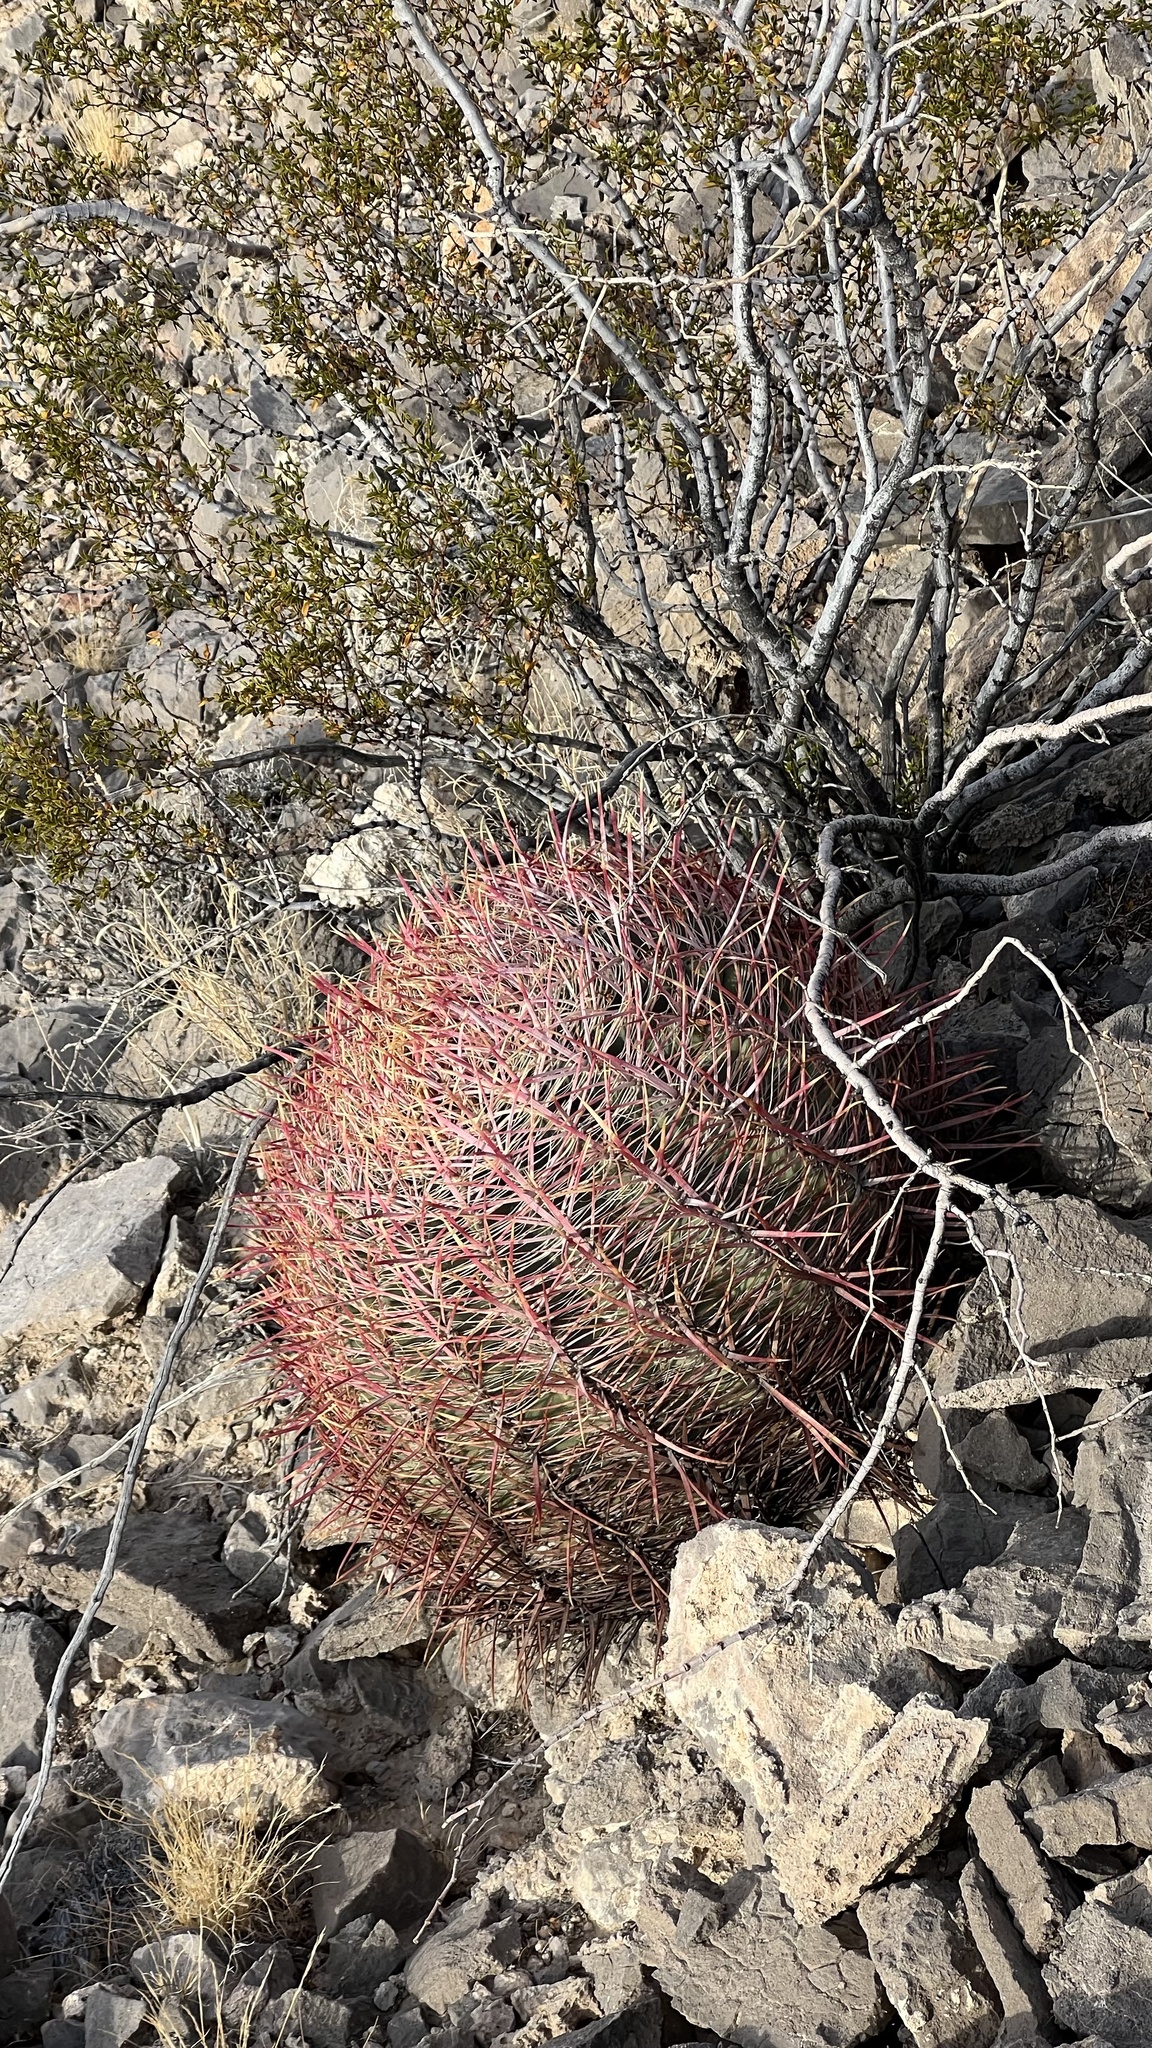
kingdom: Plantae
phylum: Tracheophyta
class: Magnoliopsida
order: Caryophyllales
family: Cactaceae
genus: Ferocactus
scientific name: Ferocactus cylindraceus
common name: California barrel cactus
